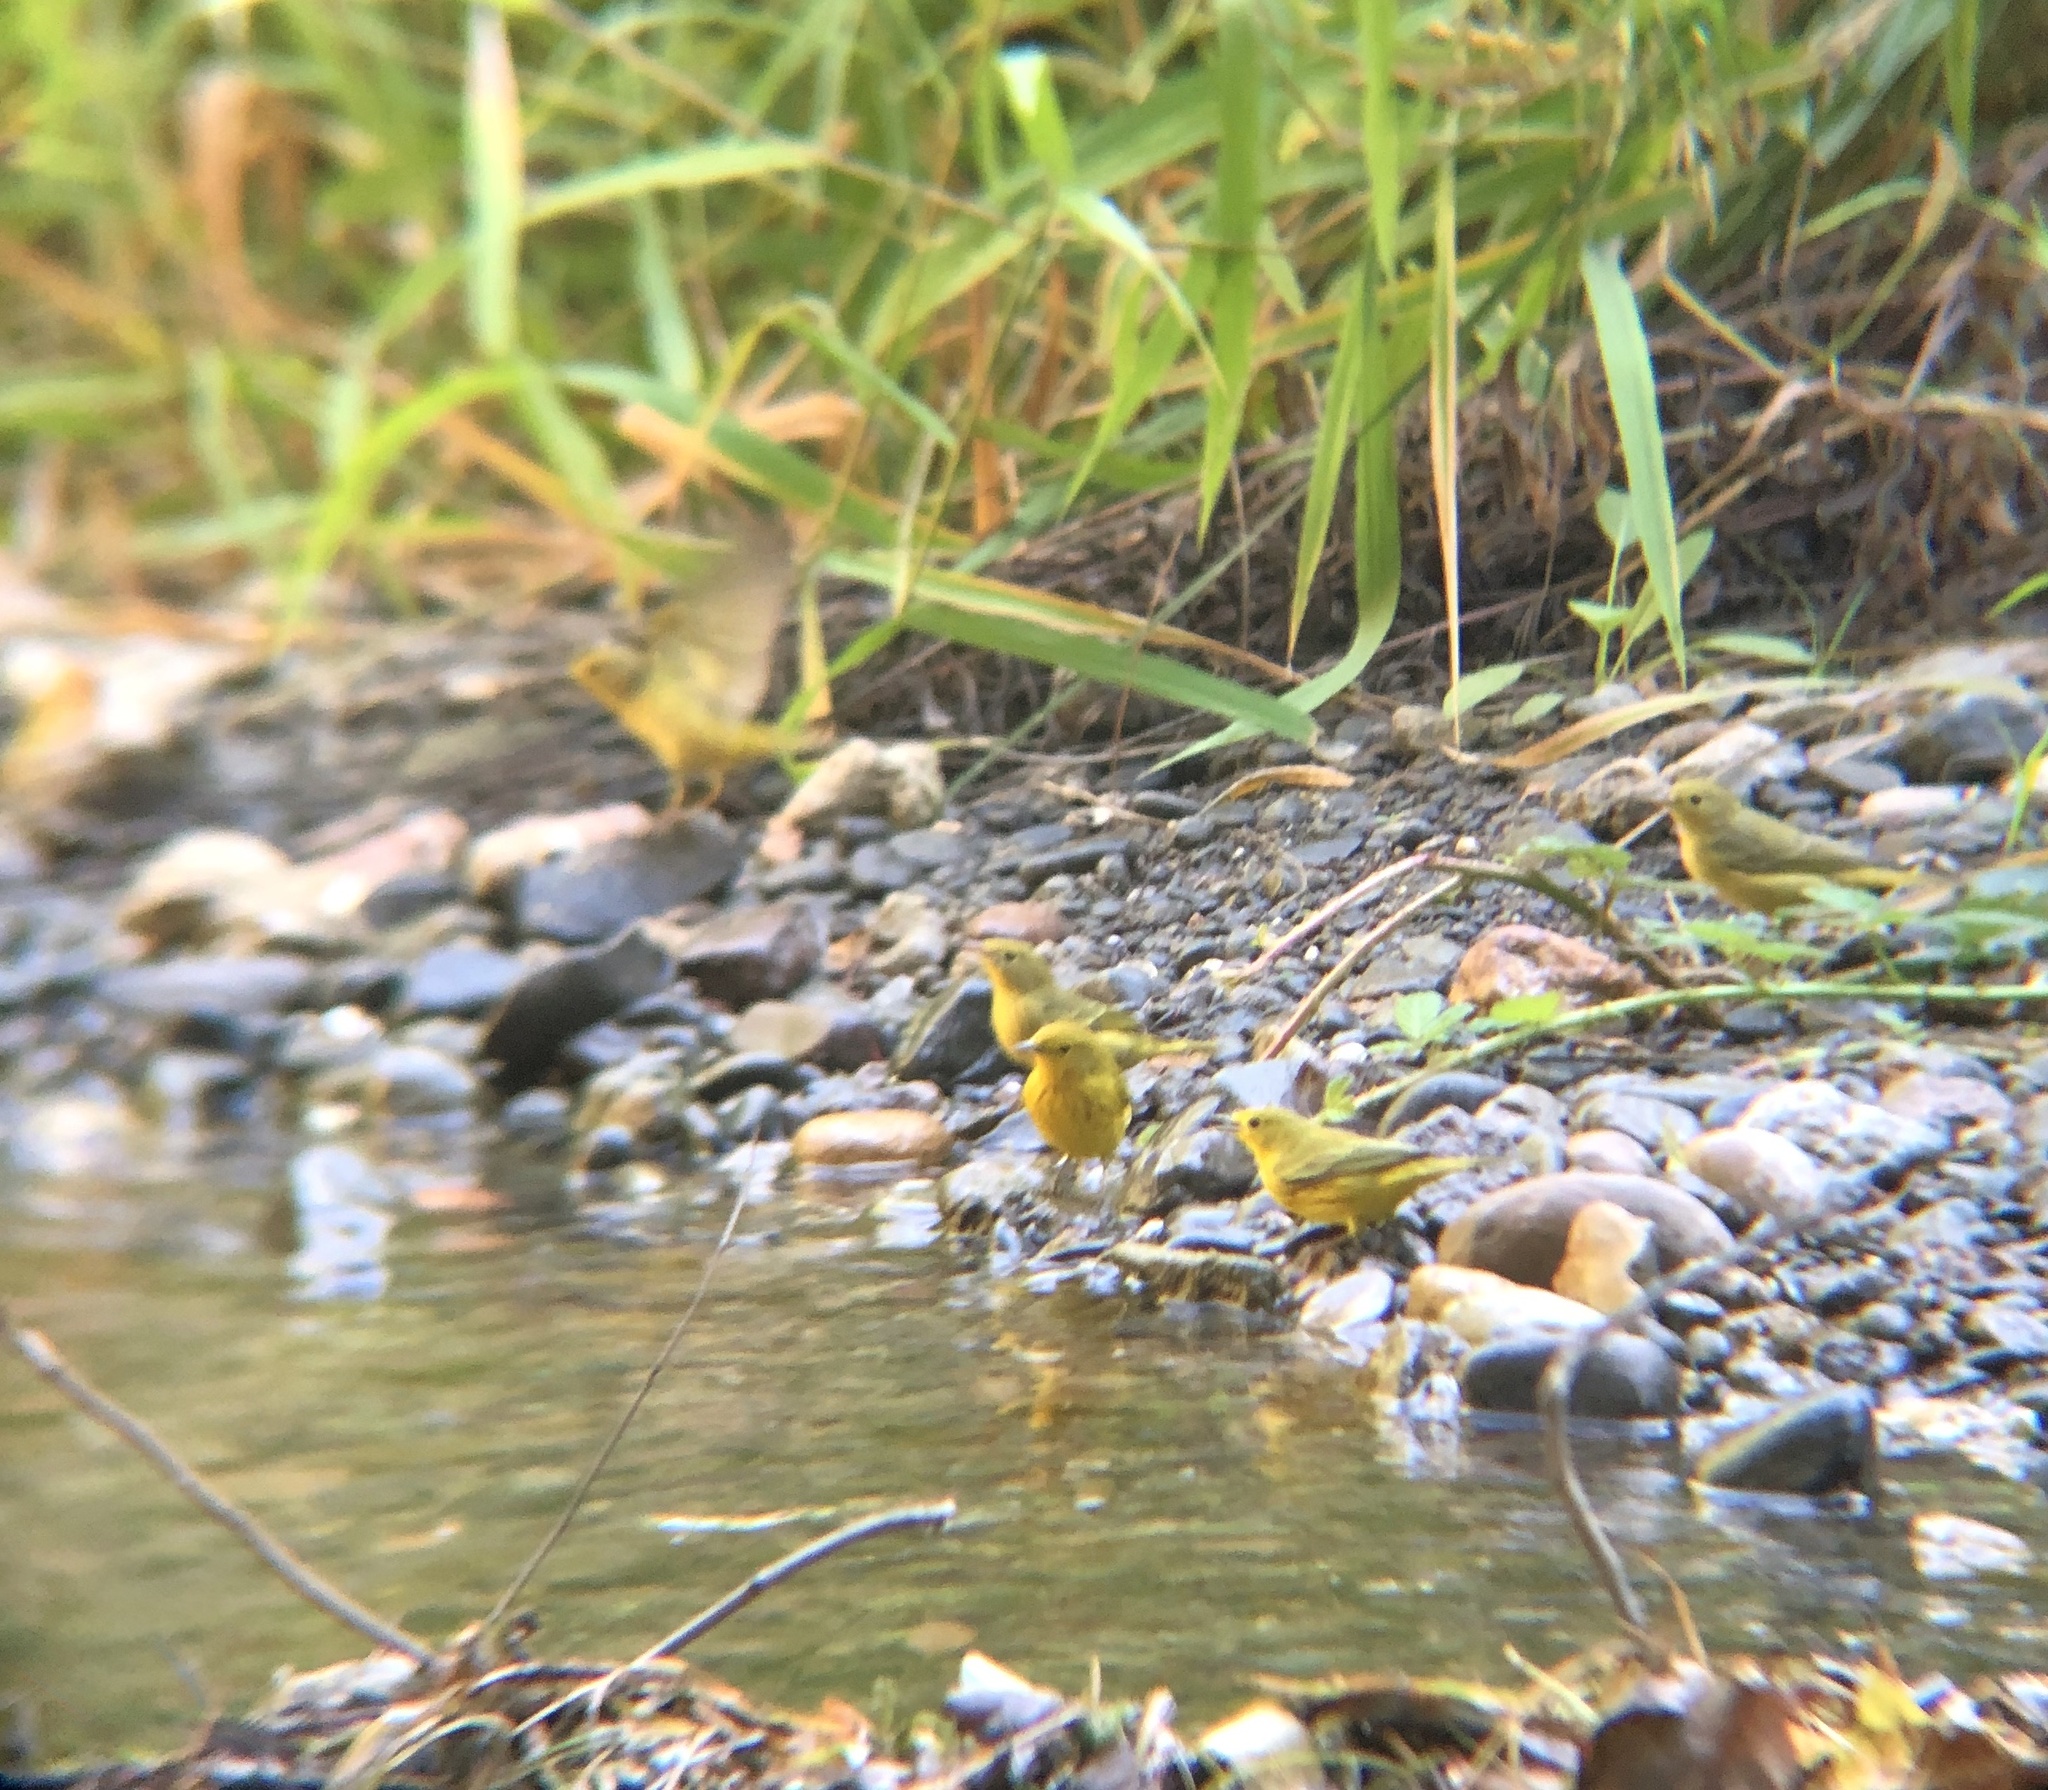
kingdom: Animalia
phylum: Chordata
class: Aves
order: Passeriformes
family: Parulidae
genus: Setophaga
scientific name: Setophaga petechia
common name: Yellow warbler
